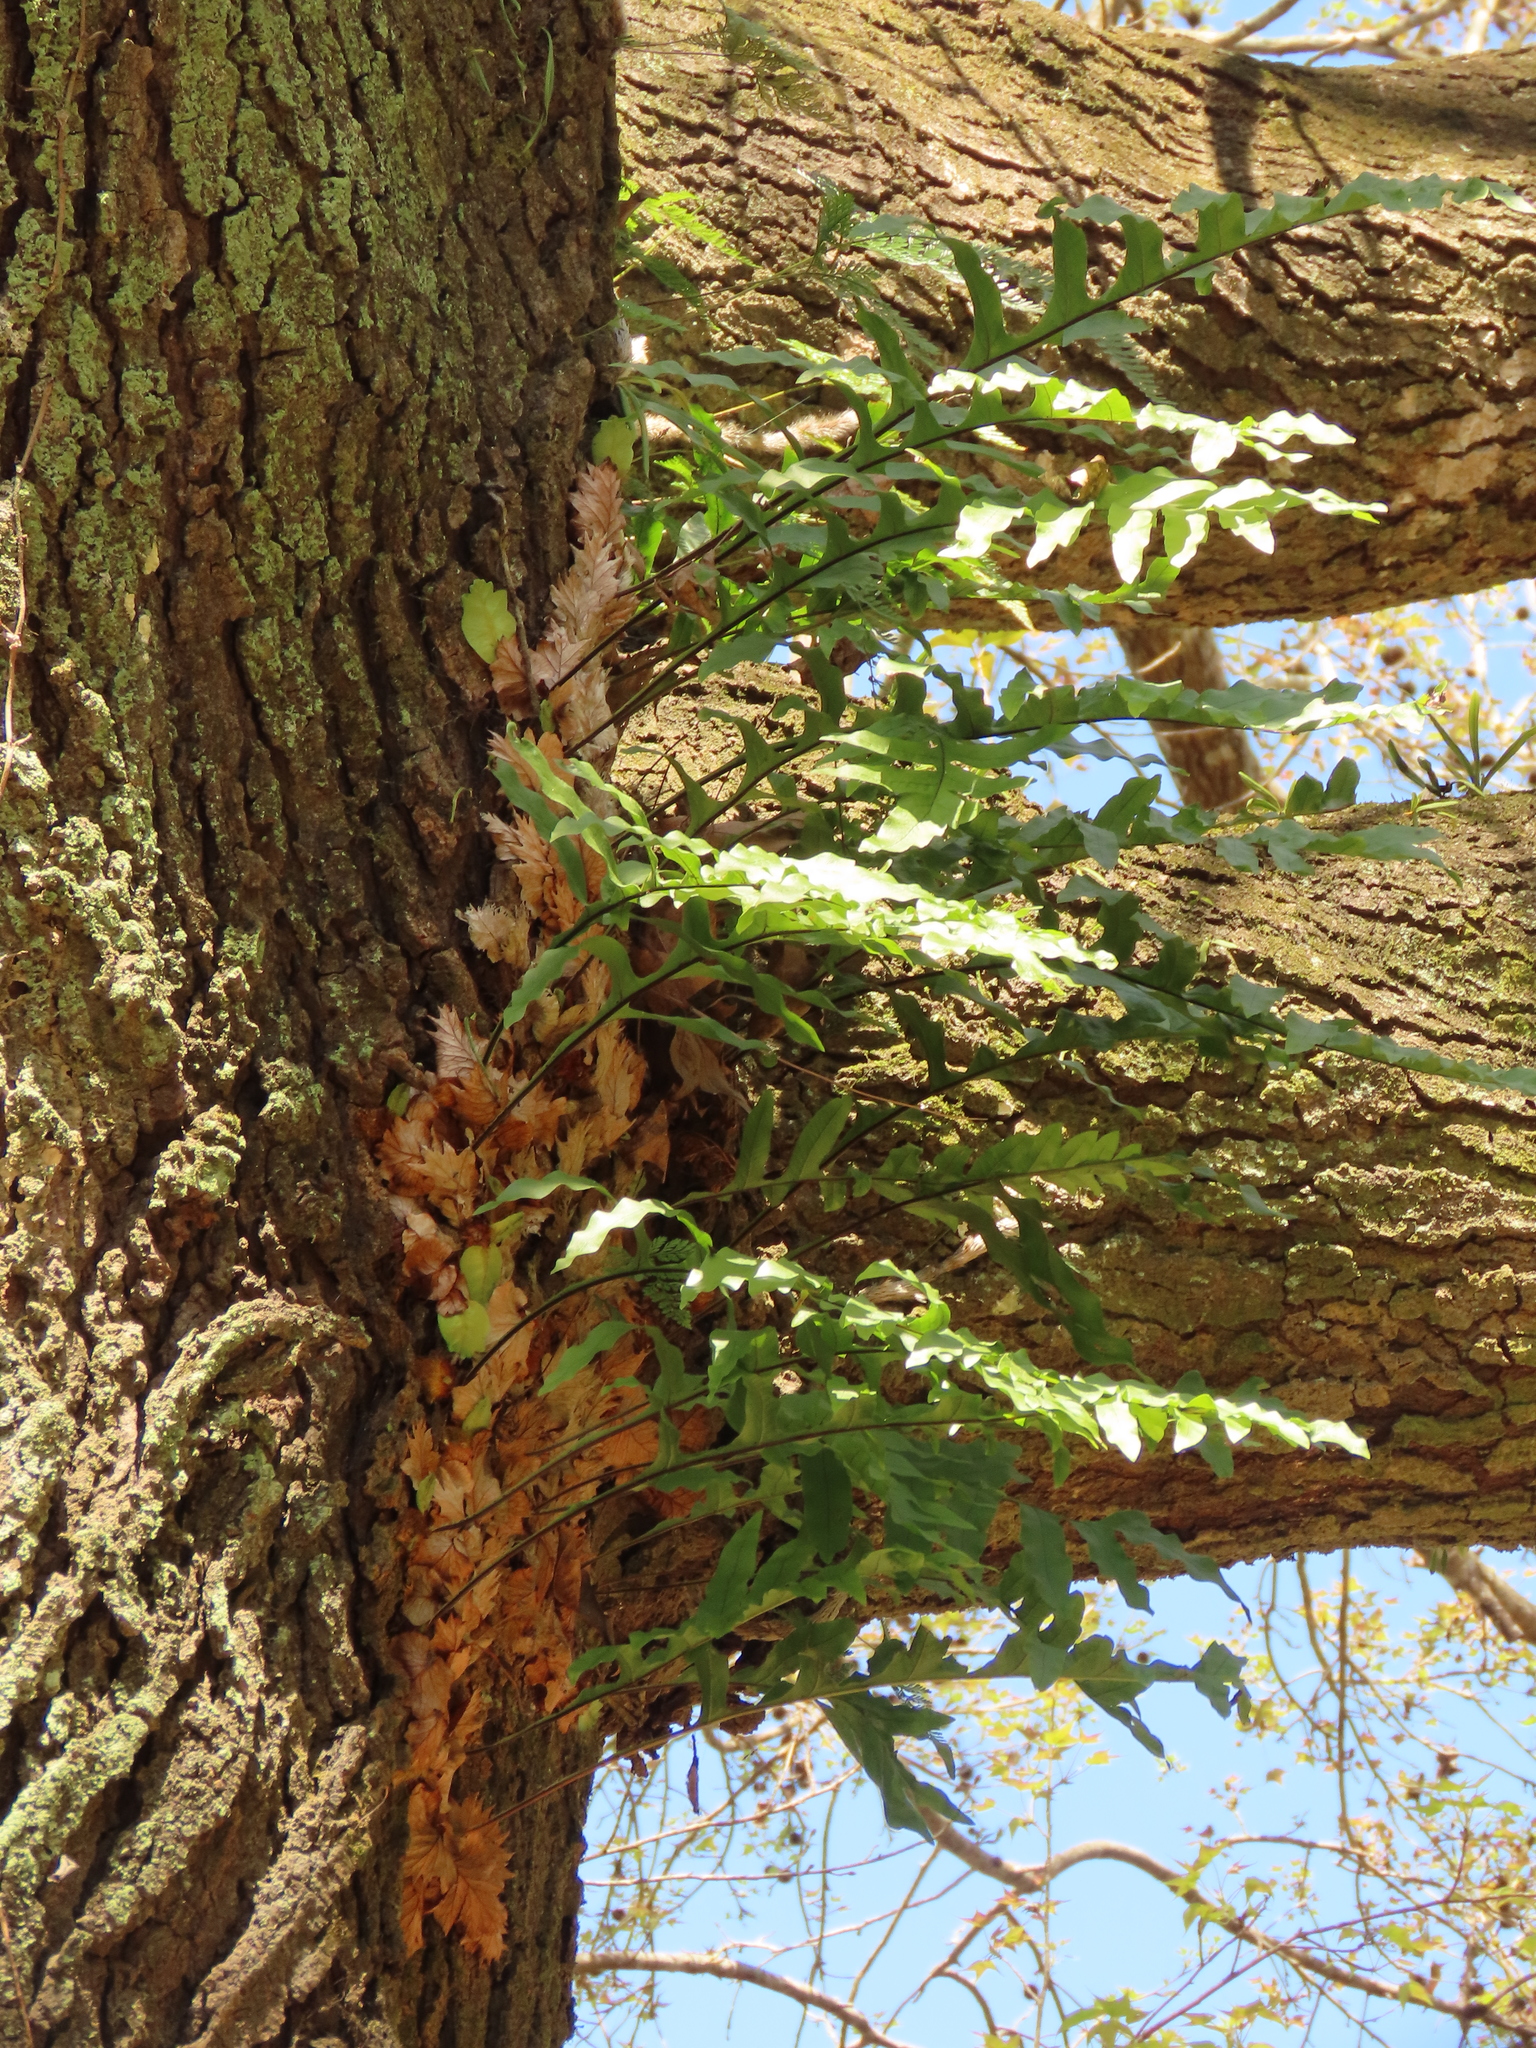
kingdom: Plantae
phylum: Tracheophyta
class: Polypodiopsida
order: Polypodiales
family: Polypodiaceae
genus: Drynaria
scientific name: Drynaria roosii
